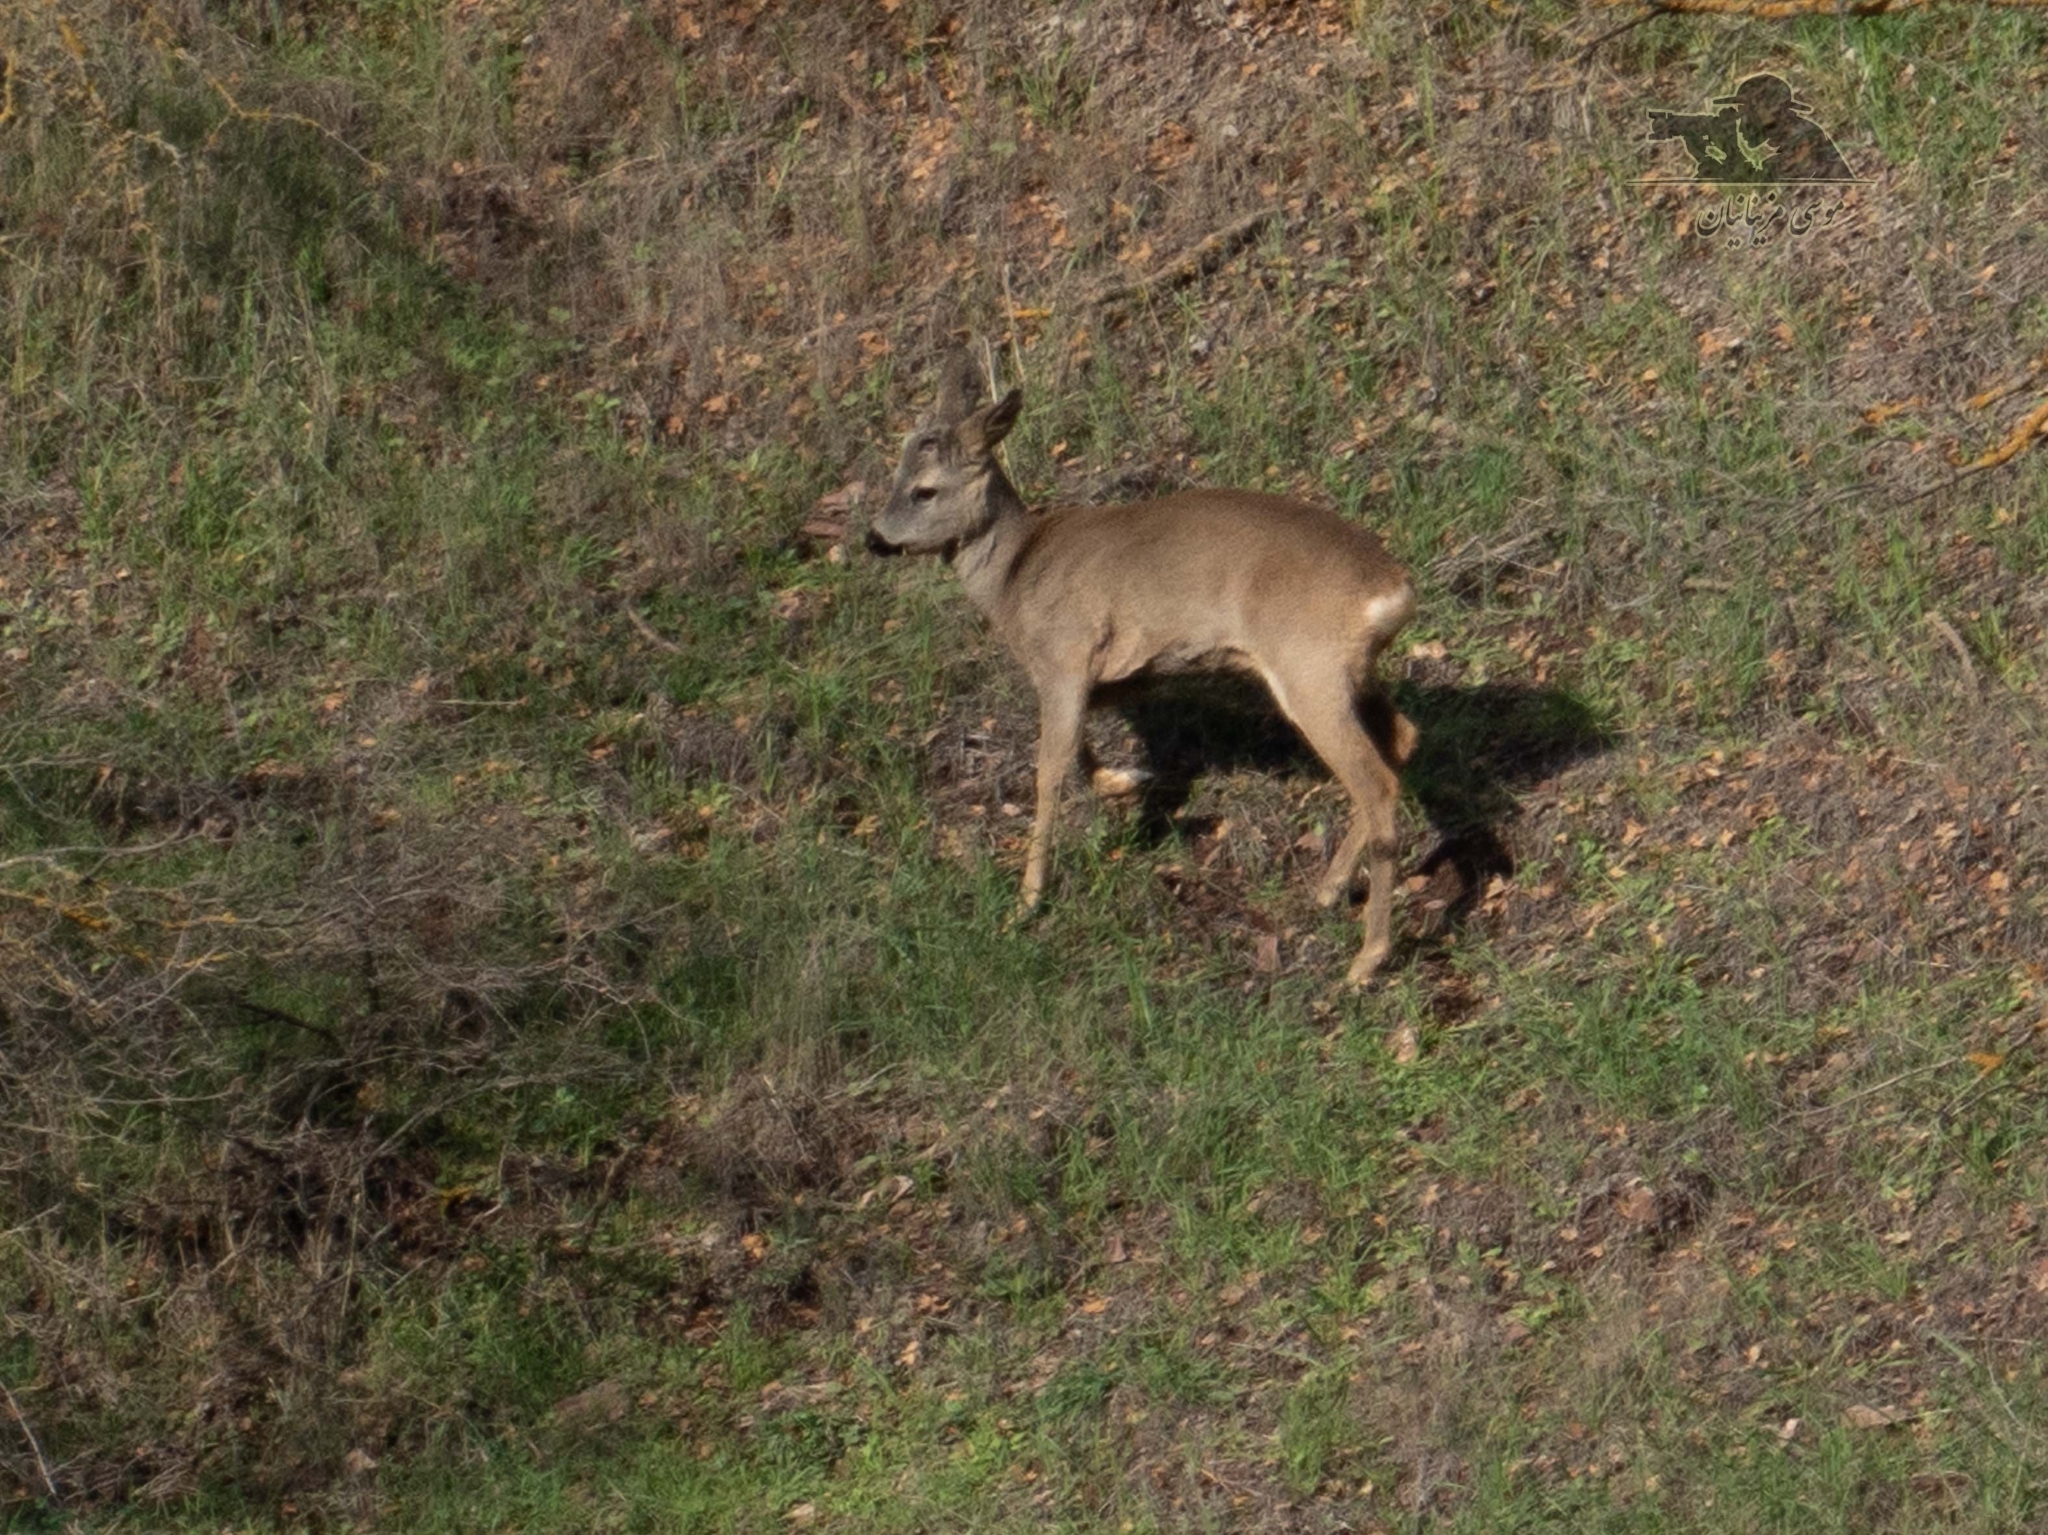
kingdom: Animalia
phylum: Chordata
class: Mammalia
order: Artiodactyla
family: Cervidae
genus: Capreolus
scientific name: Capreolus capreolus
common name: Western roe deer
